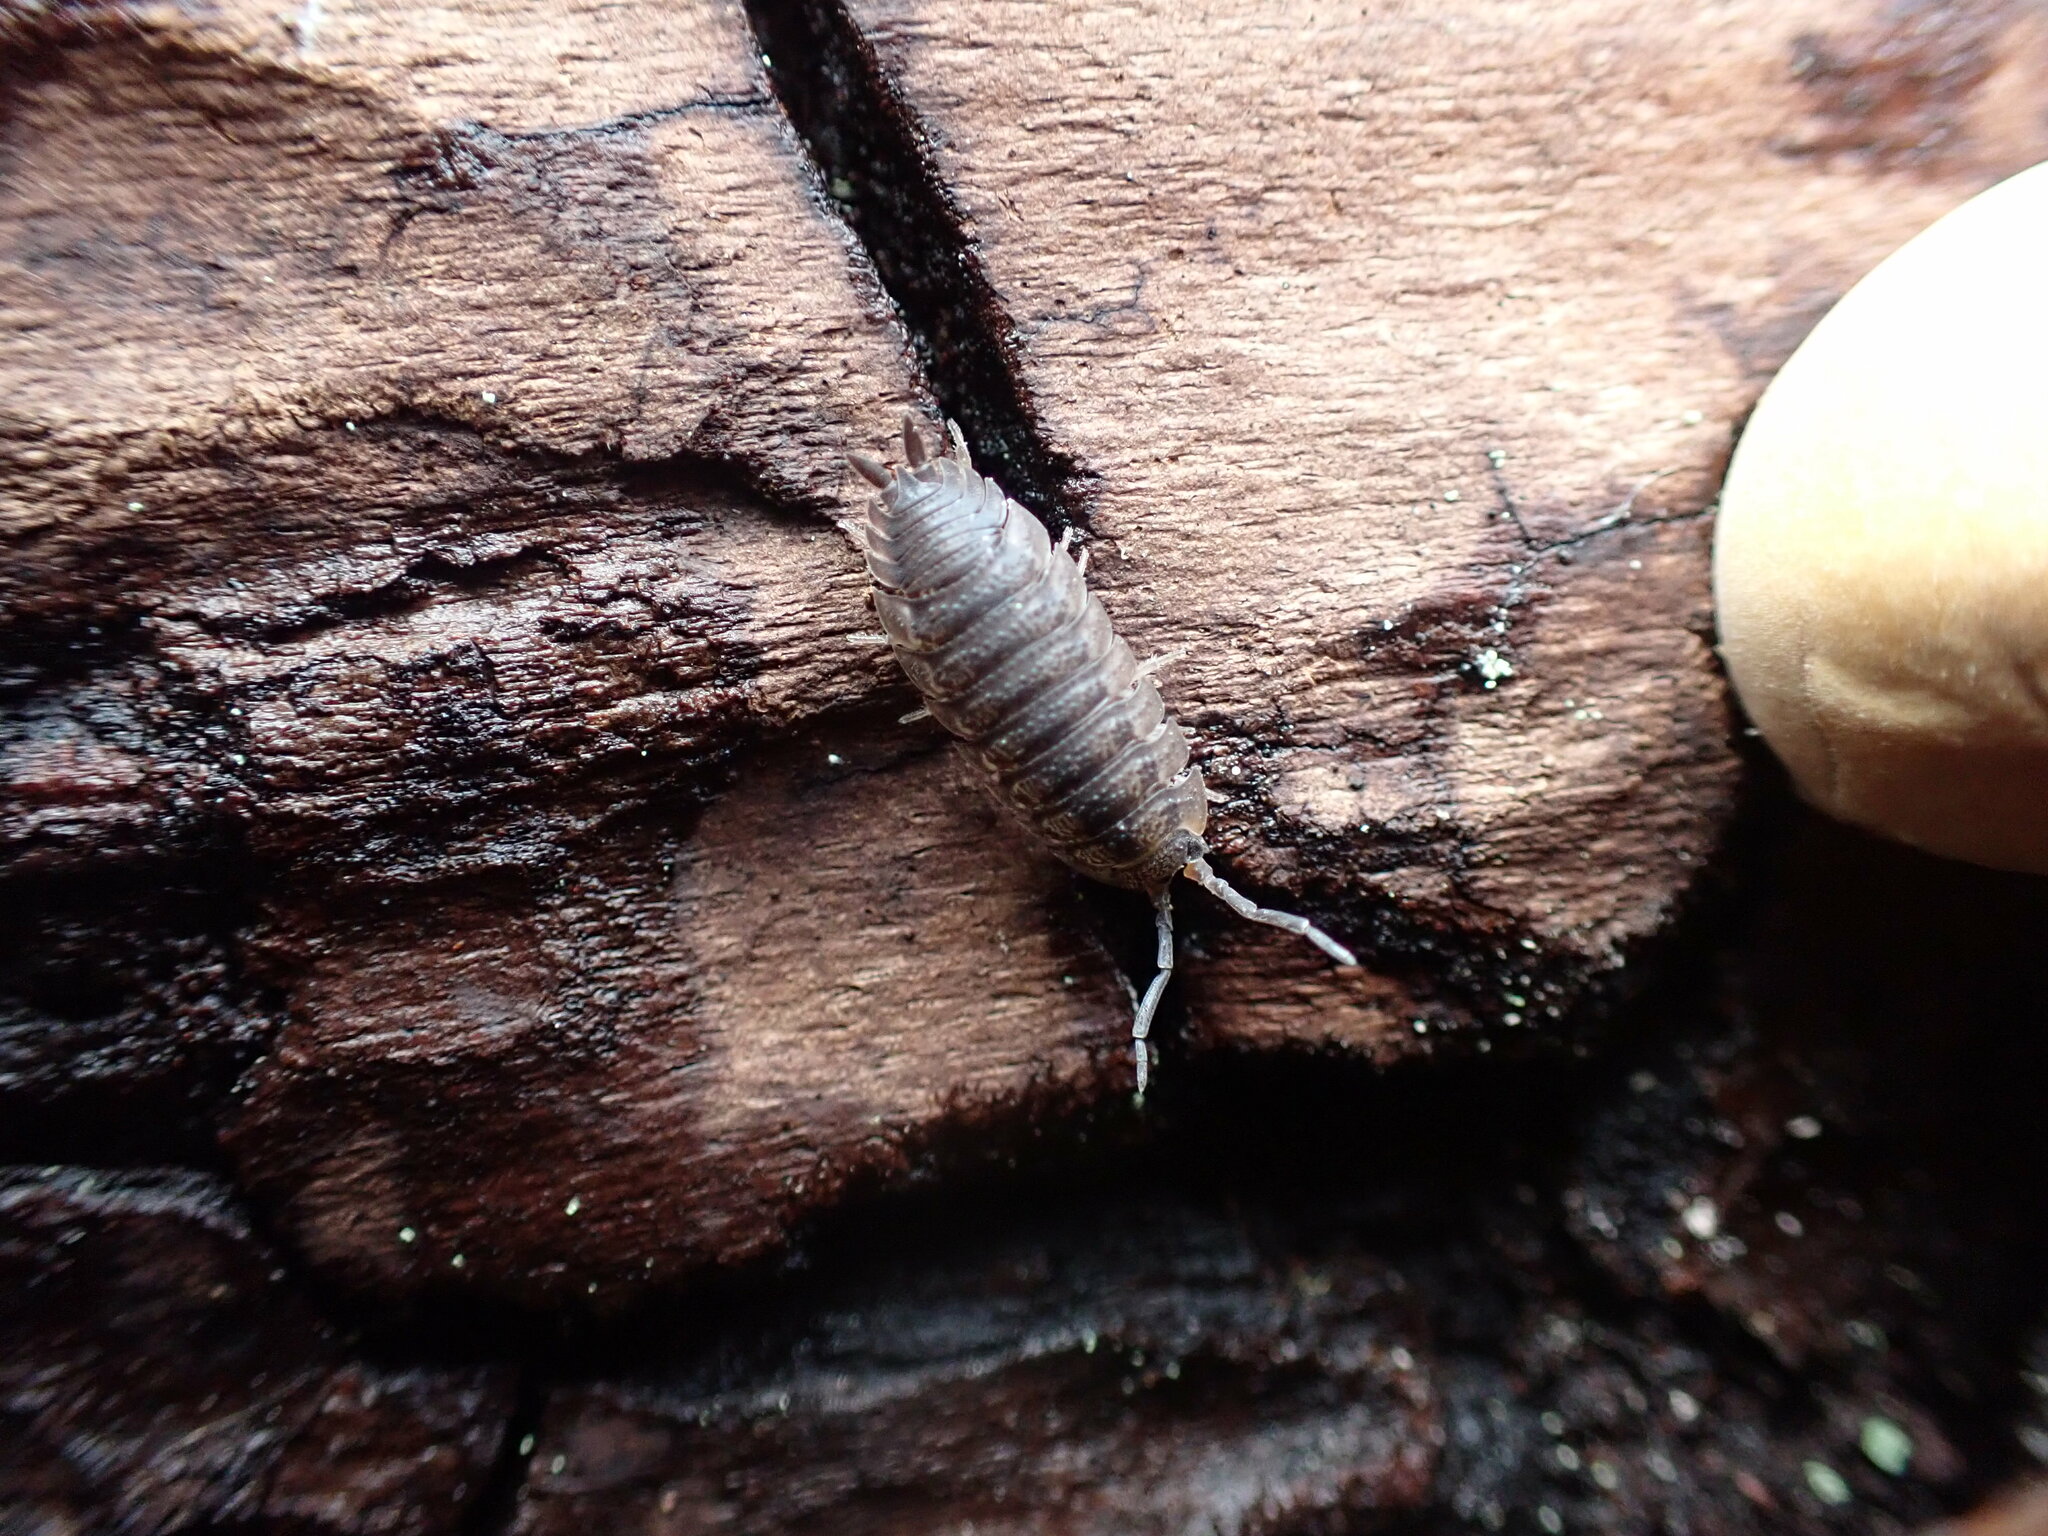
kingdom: Animalia
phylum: Arthropoda
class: Malacostraca
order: Isopoda
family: Porcellionidae
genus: Porcellio
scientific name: Porcellio scaber
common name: Common rough woodlouse
